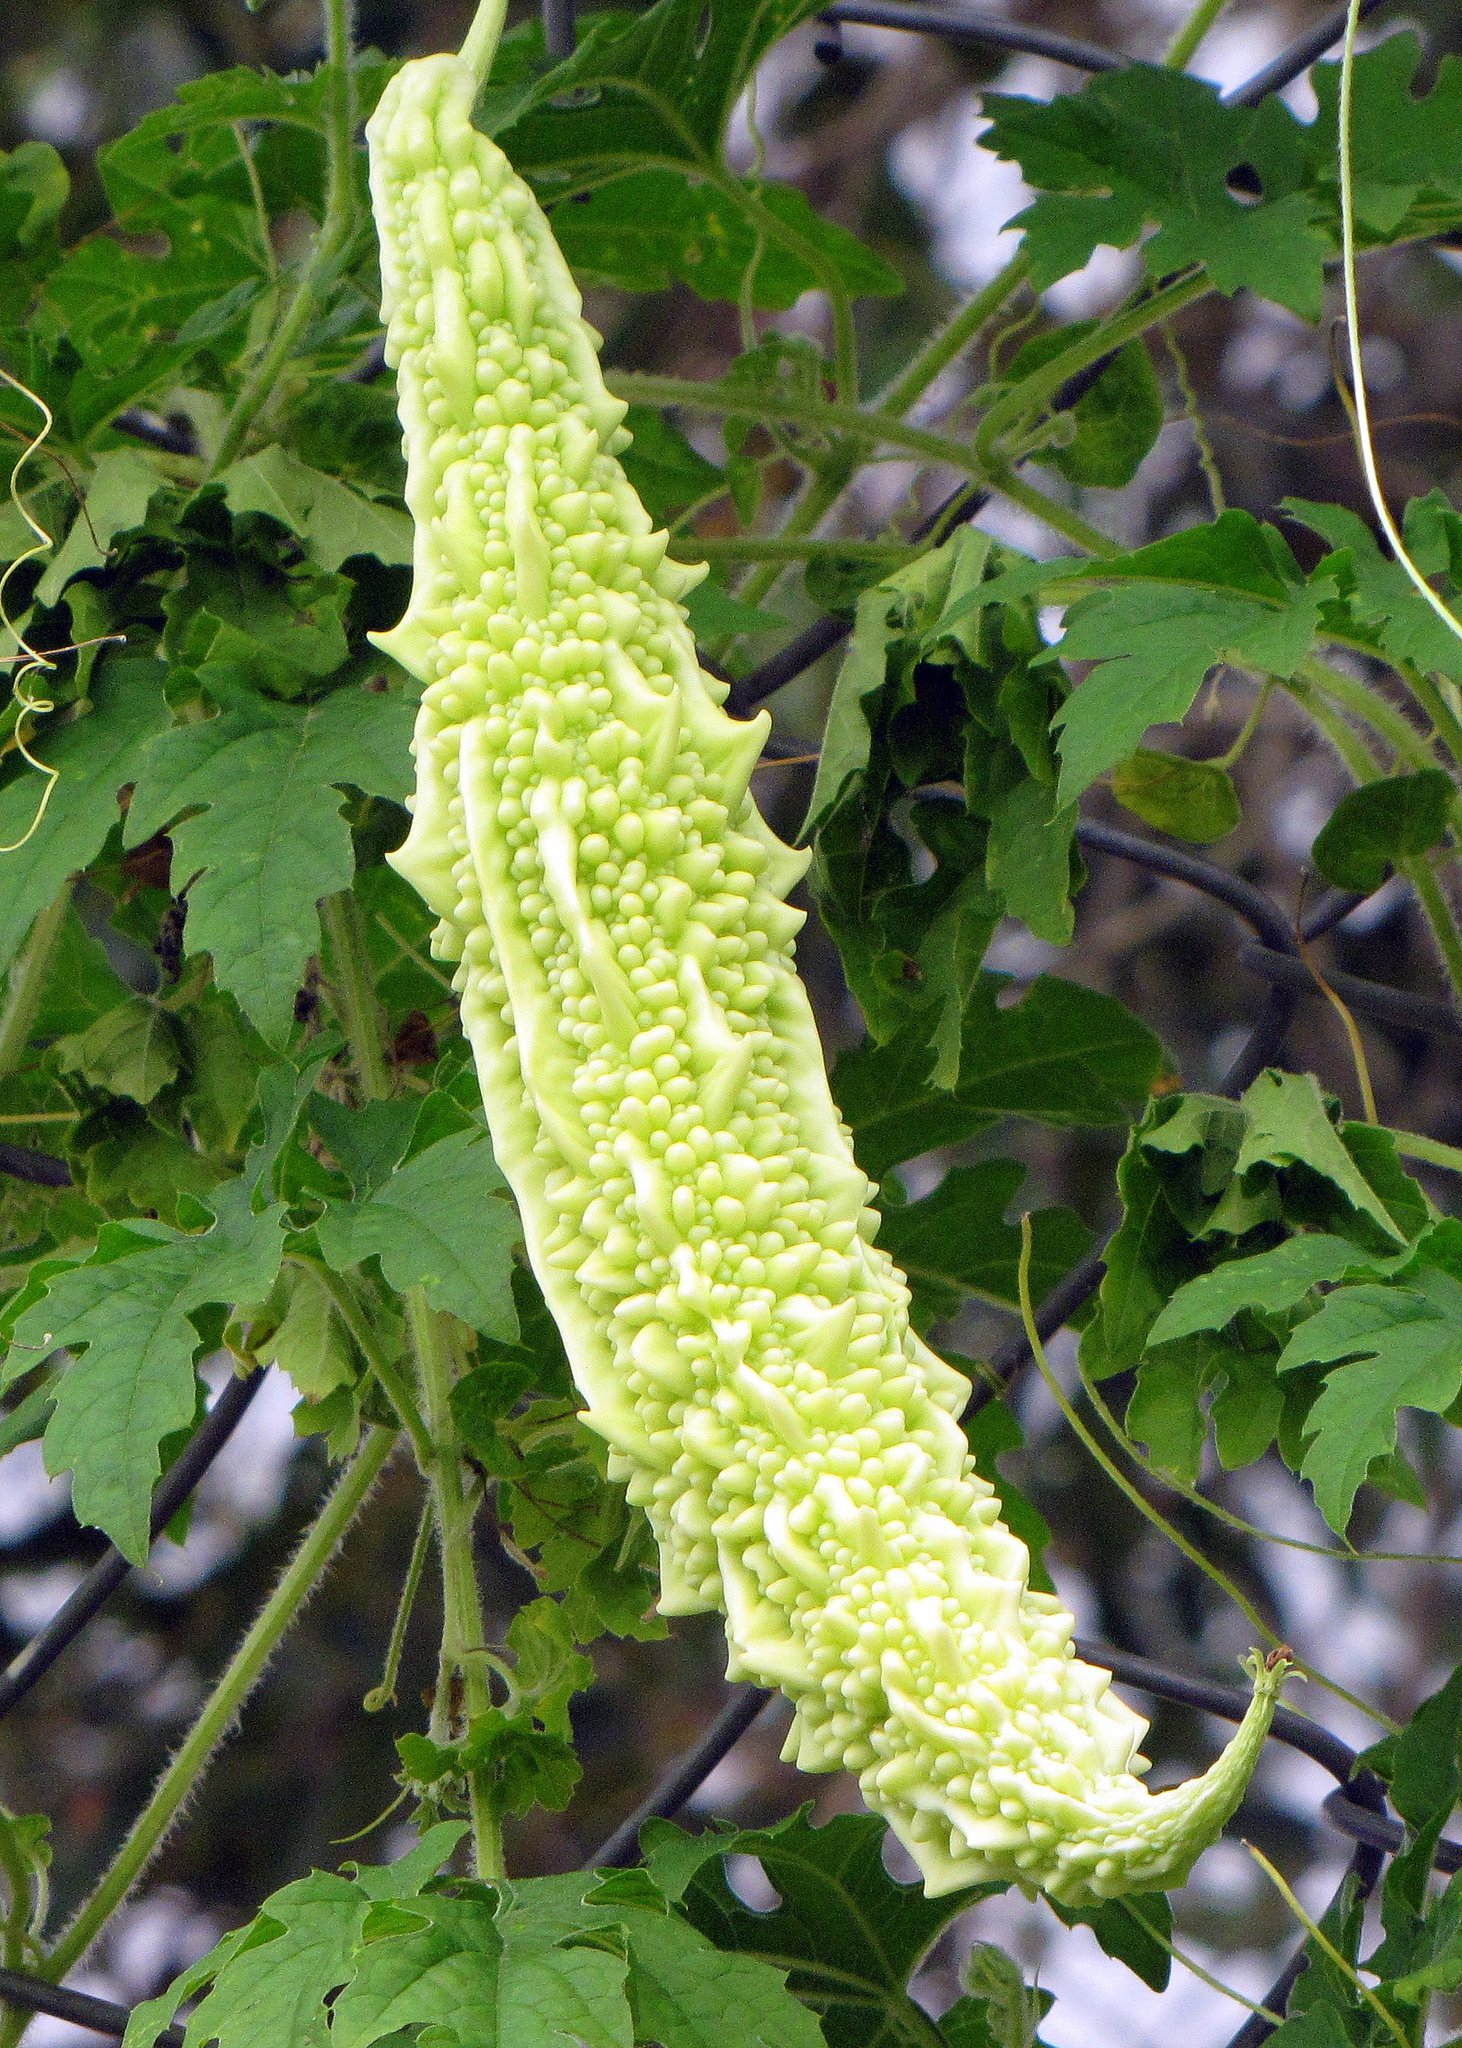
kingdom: Plantae
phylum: Tracheophyta
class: Magnoliopsida
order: Cucurbitales
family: Cucurbitaceae
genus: Momordica
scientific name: Momordica charantia
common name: Balsampear
